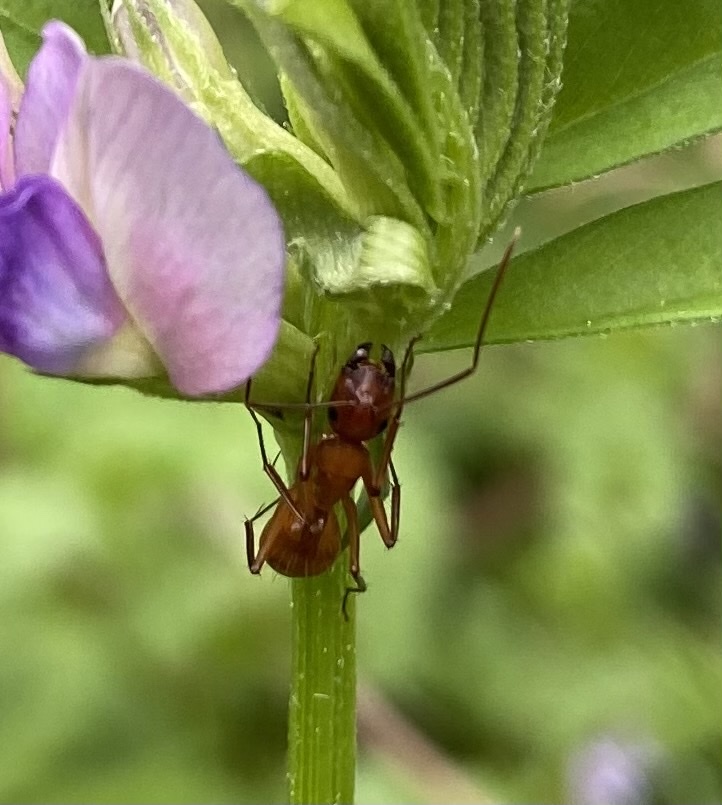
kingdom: Animalia
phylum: Arthropoda
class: Insecta
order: Hymenoptera
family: Formicidae
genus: Camponotus
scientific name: Camponotus castaneus
